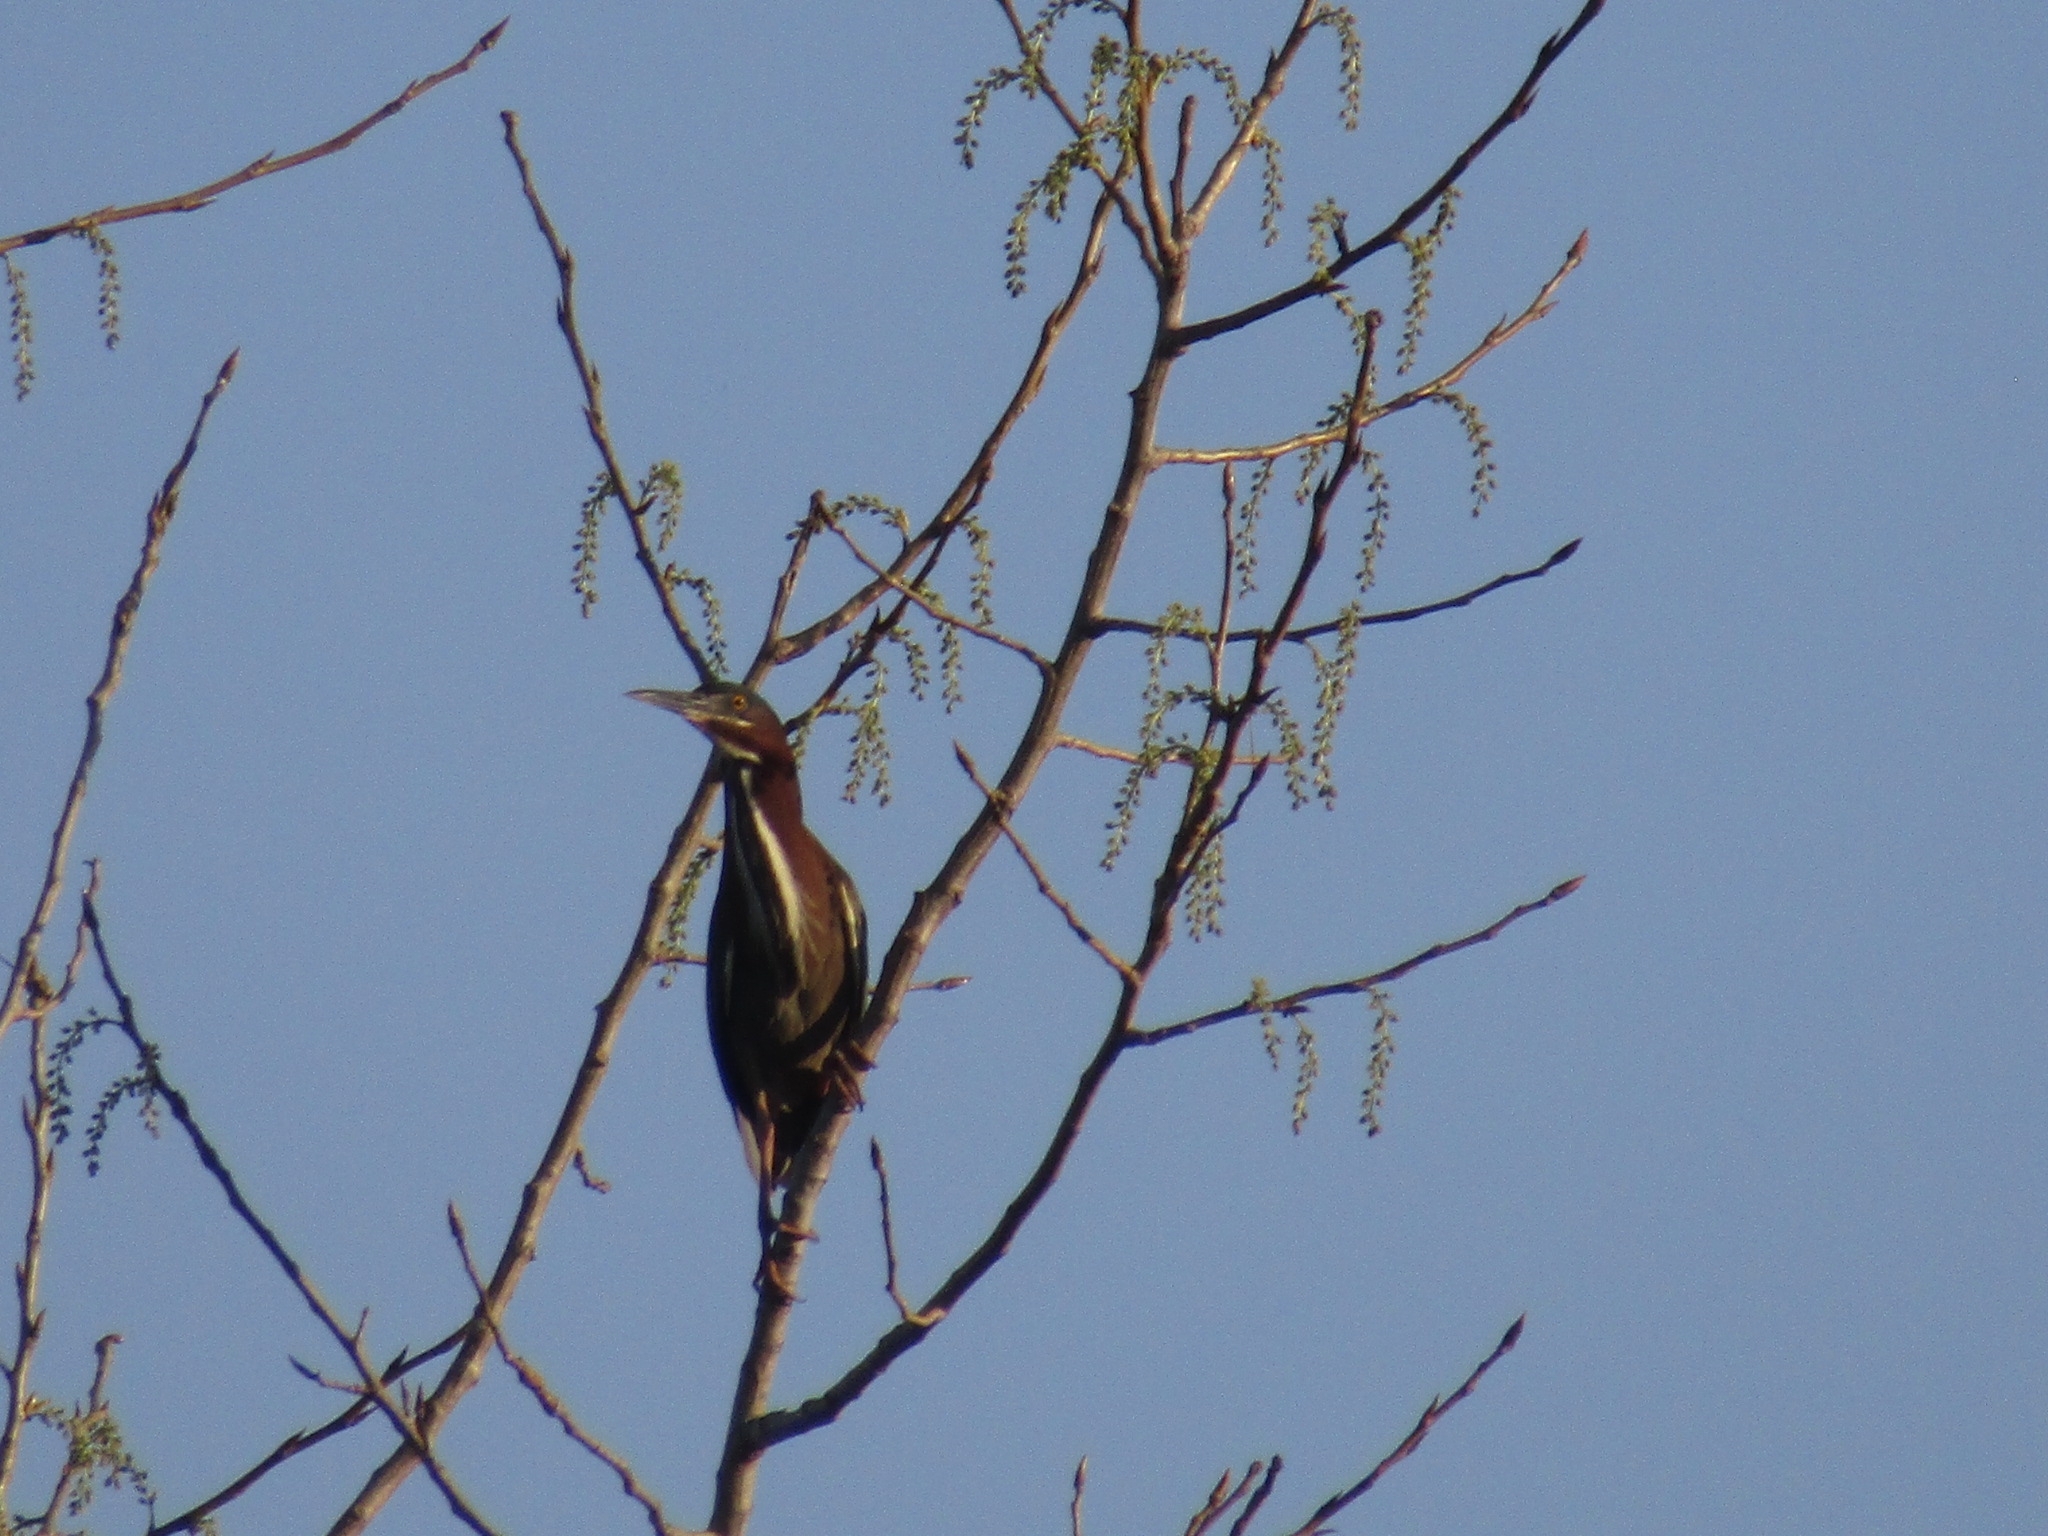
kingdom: Animalia
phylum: Chordata
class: Aves
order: Pelecaniformes
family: Ardeidae
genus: Butorides
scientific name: Butorides virescens
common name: Green heron
